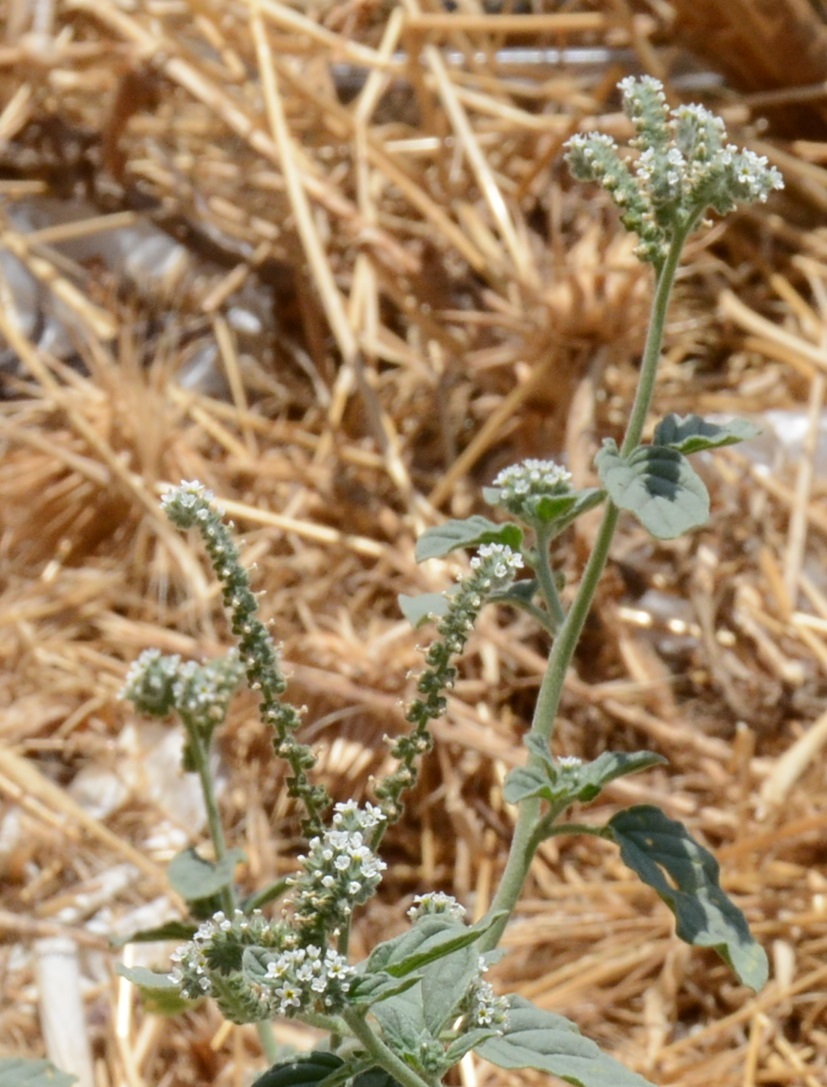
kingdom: Plantae
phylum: Tracheophyta
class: Magnoliopsida
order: Boraginales
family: Heliotropiaceae
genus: Heliotropium
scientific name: Heliotropium europaeum
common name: European heliotrope
